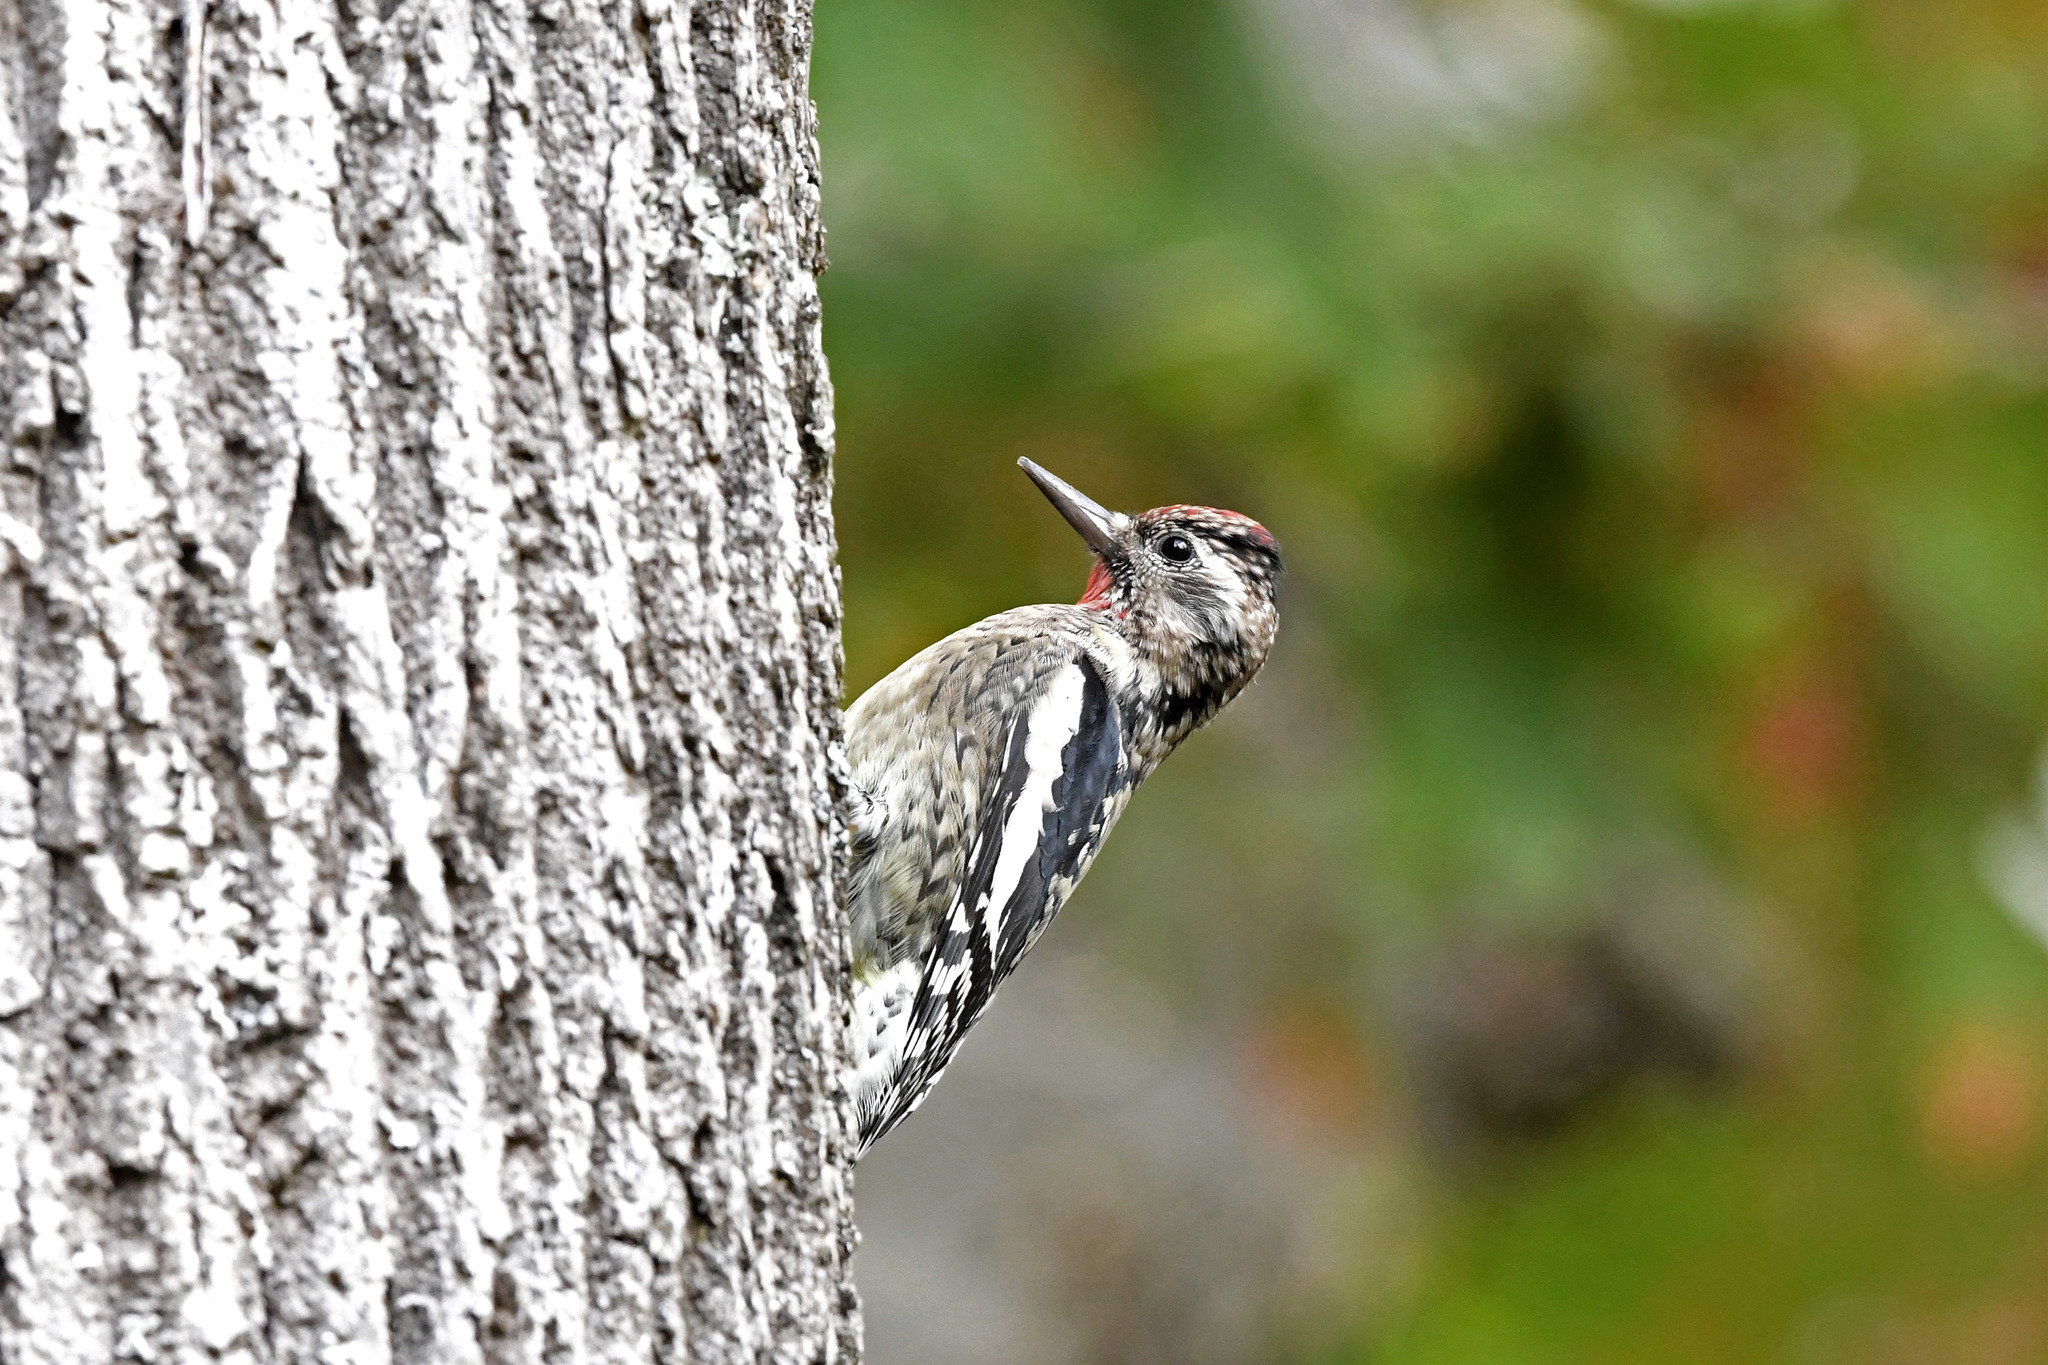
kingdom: Animalia
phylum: Chordata
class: Aves
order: Piciformes
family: Picidae
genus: Sphyrapicus
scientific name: Sphyrapicus varius
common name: Yellow-bellied sapsucker
